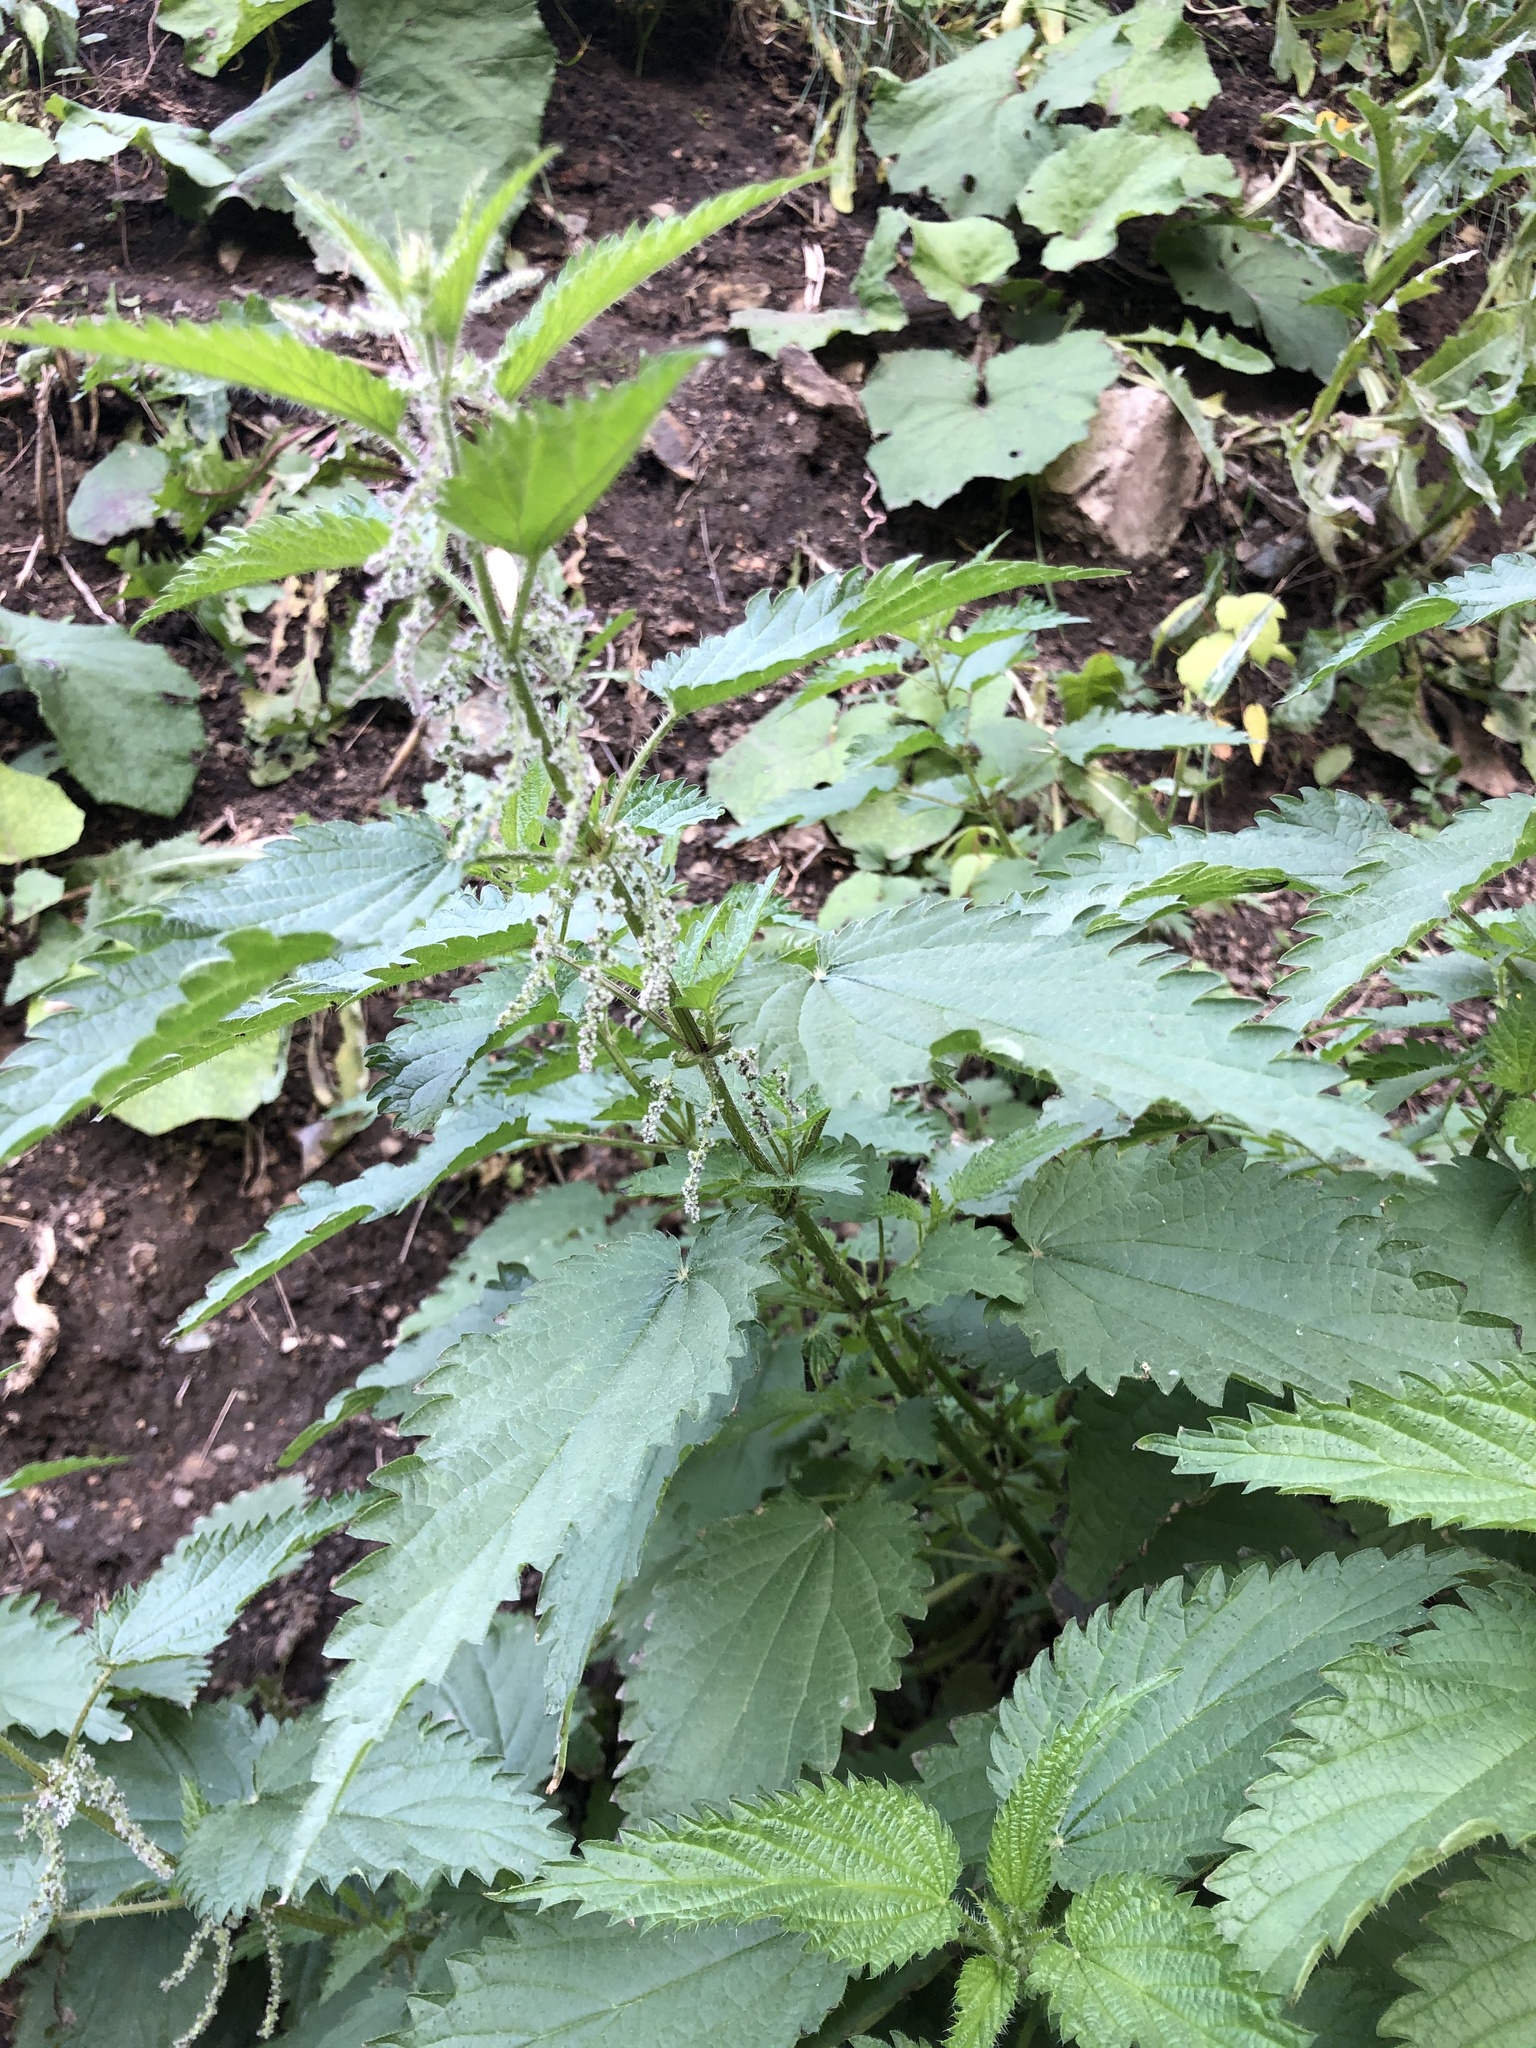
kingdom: Plantae
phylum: Tracheophyta
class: Magnoliopsida
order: Rosales
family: Urticaceae
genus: Urtica
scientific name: Urtica dioica
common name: Common nettle
